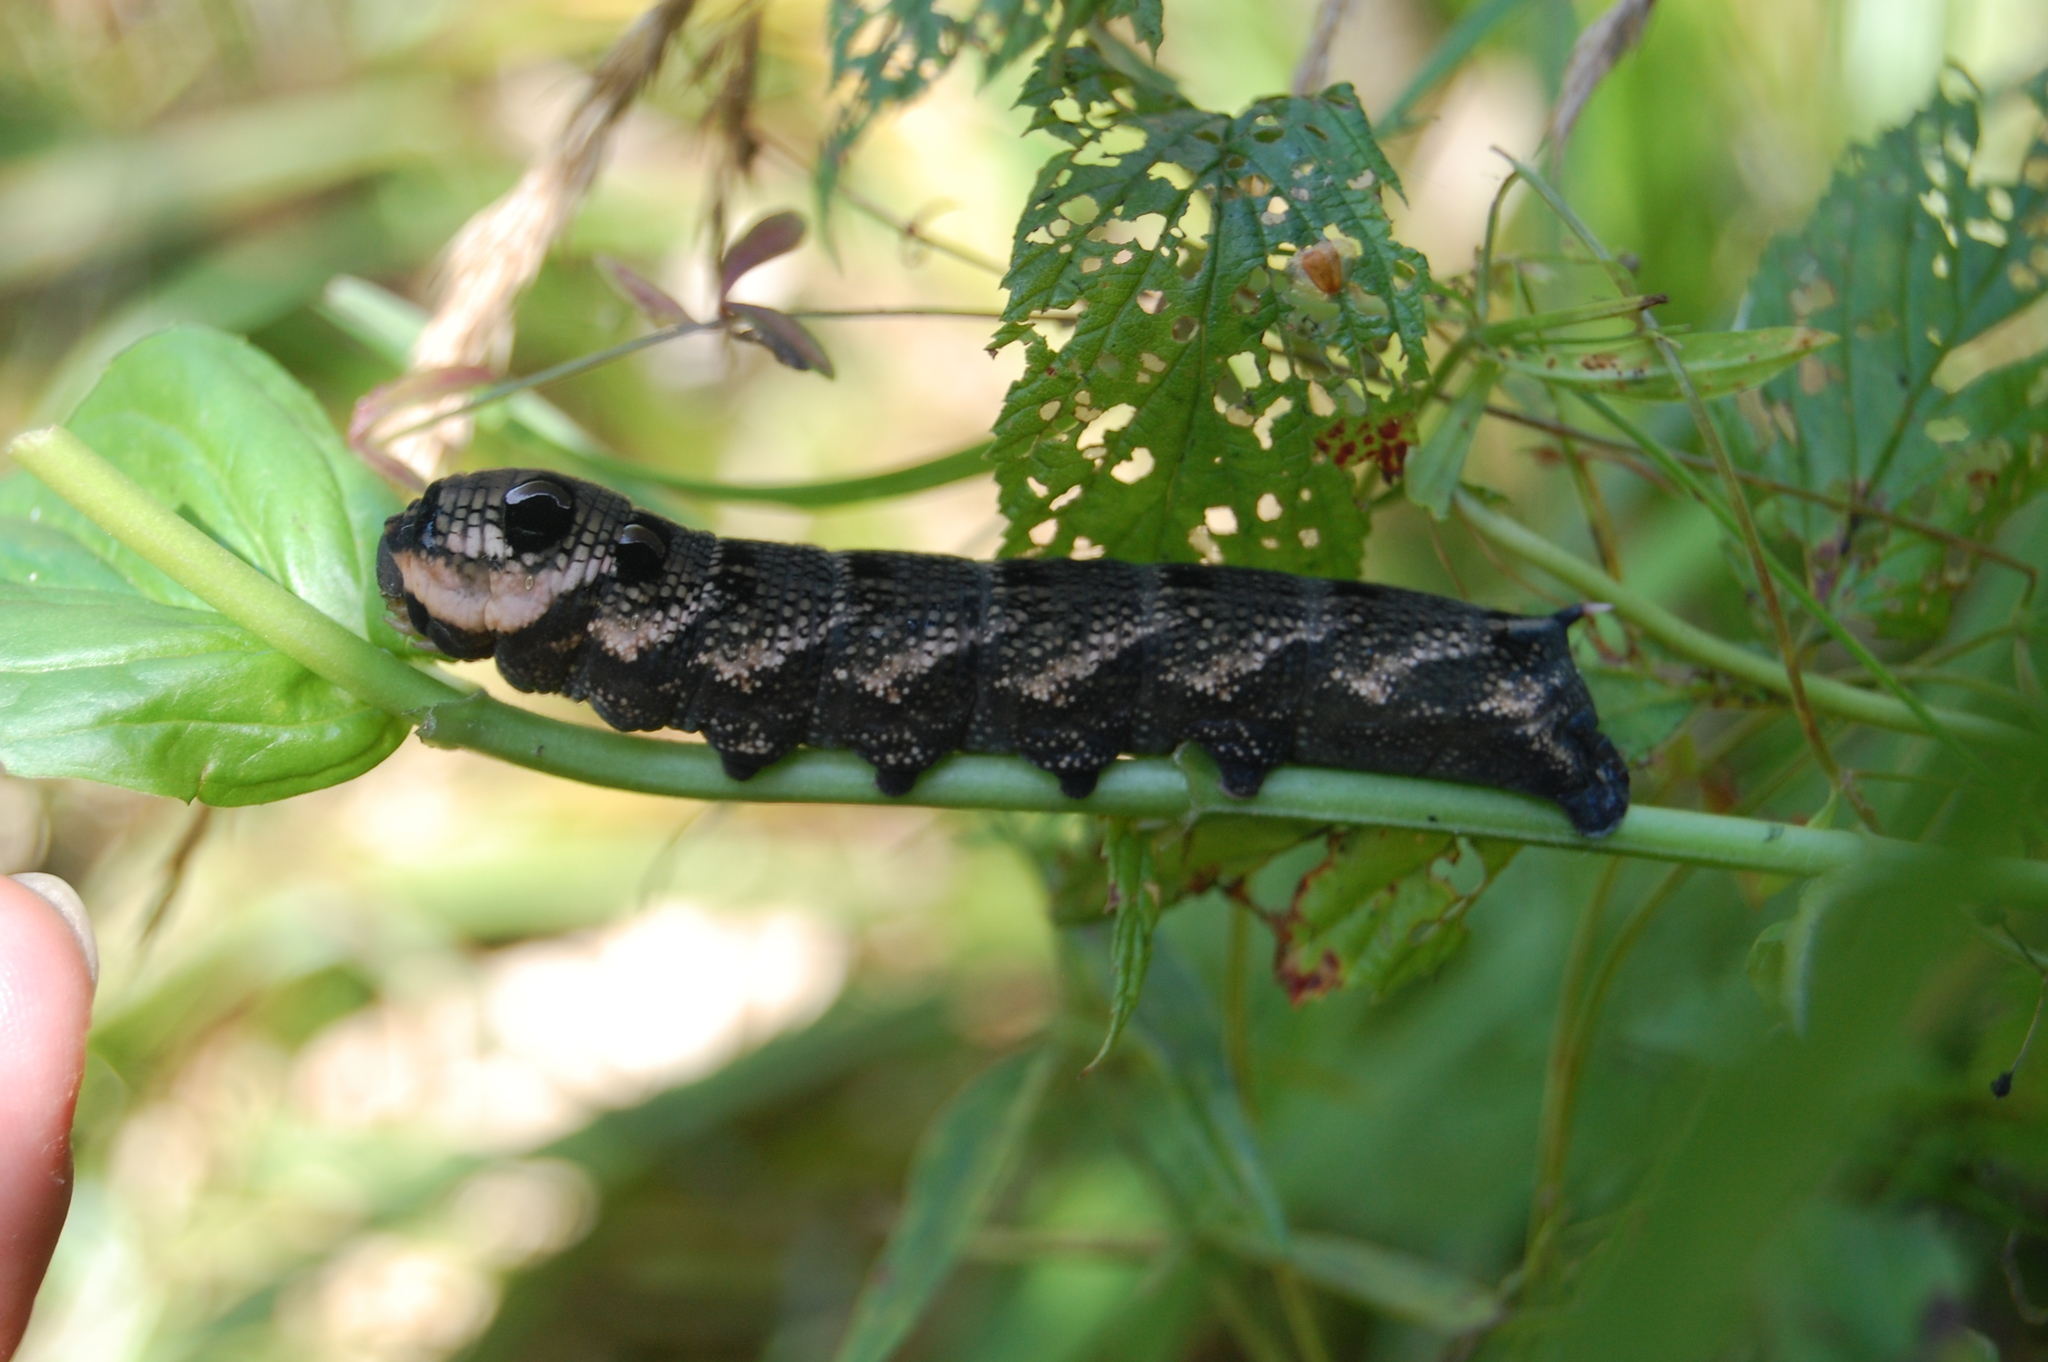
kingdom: Animalia
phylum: Arthropoda
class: Insecta
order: Lepidoptera
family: Sphingidae
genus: Deilephila
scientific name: Deilephila elpenor
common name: Elephant hawk-moth
